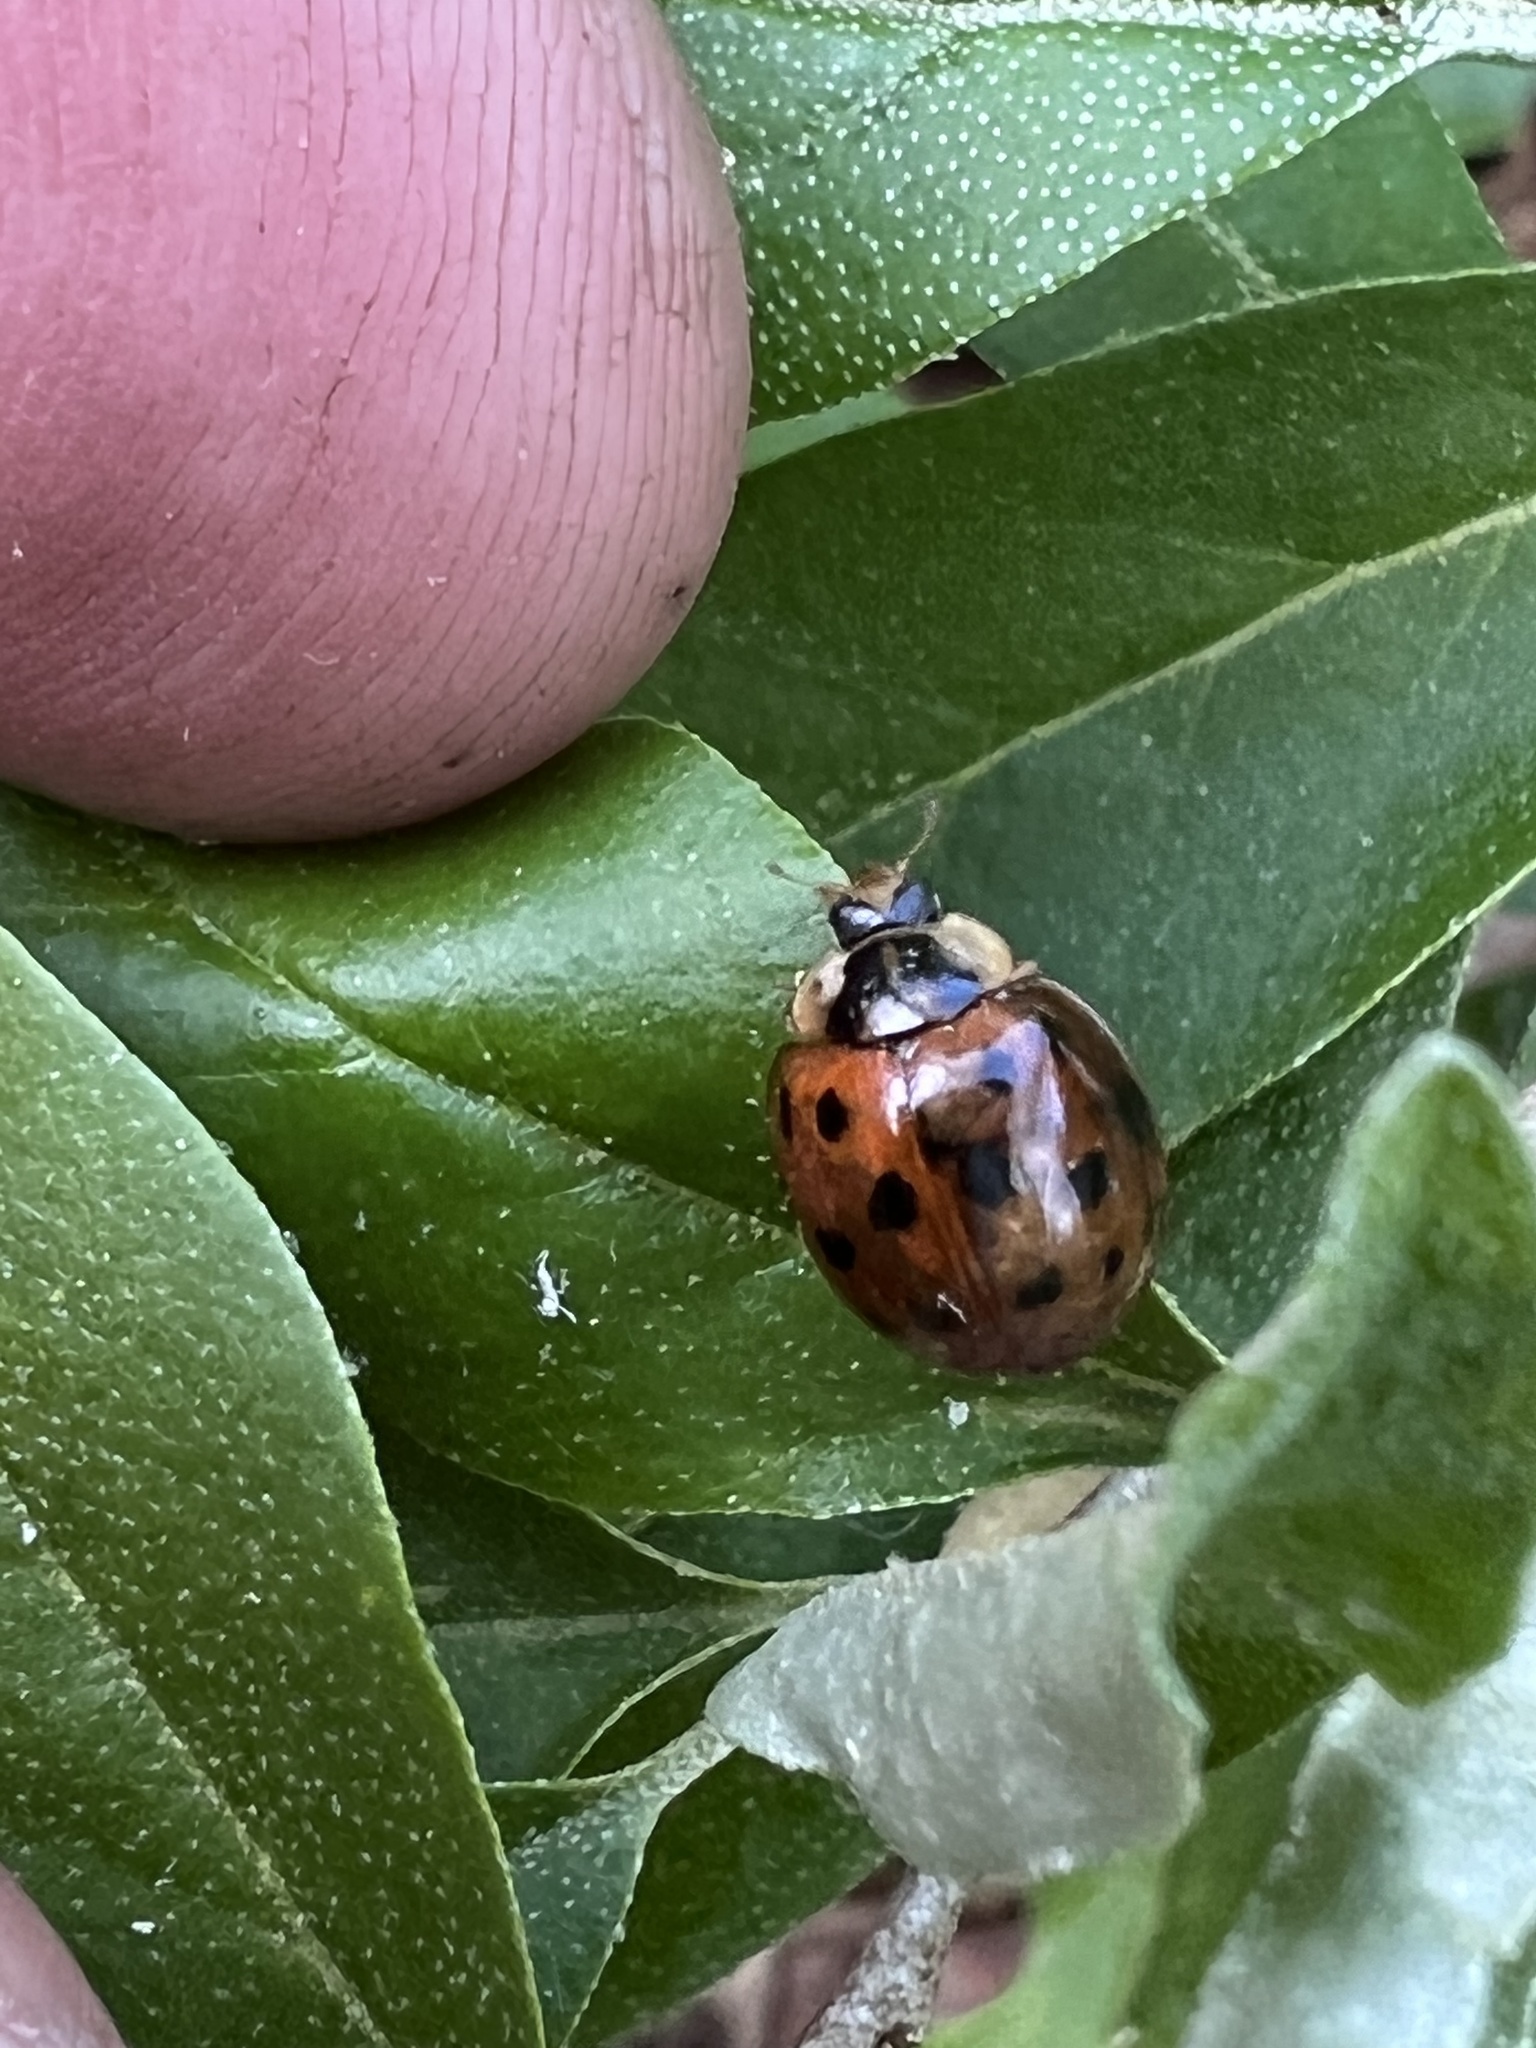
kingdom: Animalia
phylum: Arthropoda
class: Insecta
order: Coleoptera
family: Coccinellidae
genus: Harmonia
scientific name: Harmonia axyridis
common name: Harlequin ladybird
